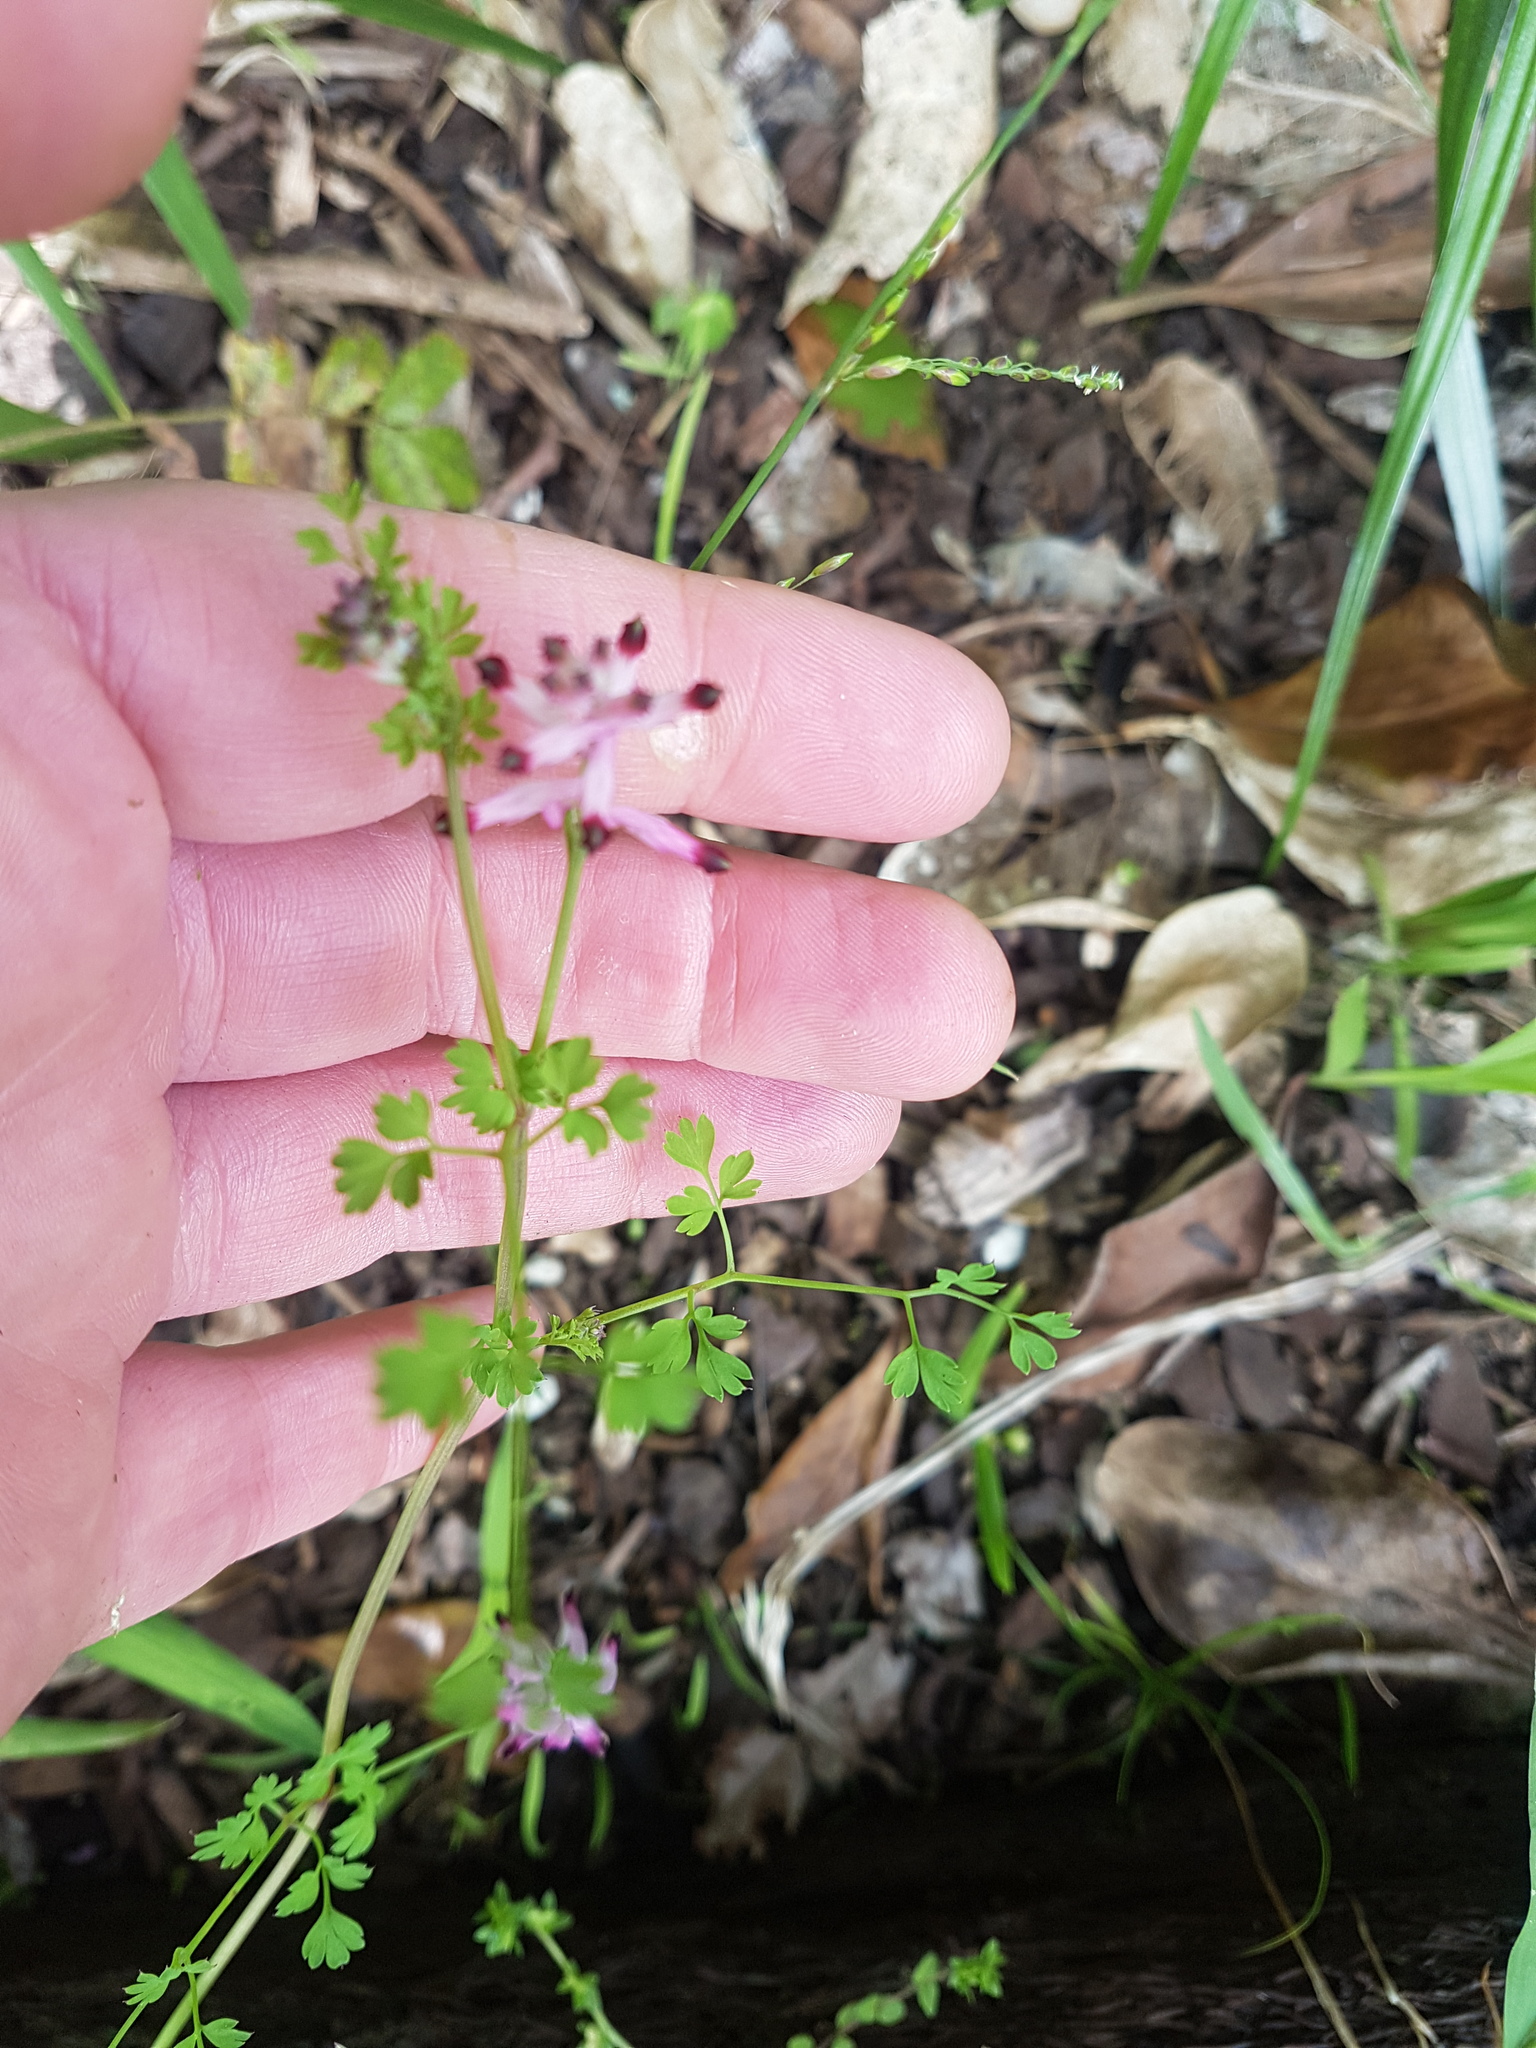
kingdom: Plantae
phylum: Tracheophyta
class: Magnoliopsida
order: Ranunculales
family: Papaveraceae
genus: Fumaria
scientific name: Fumaria muralis
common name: Common ramping-fumitory
